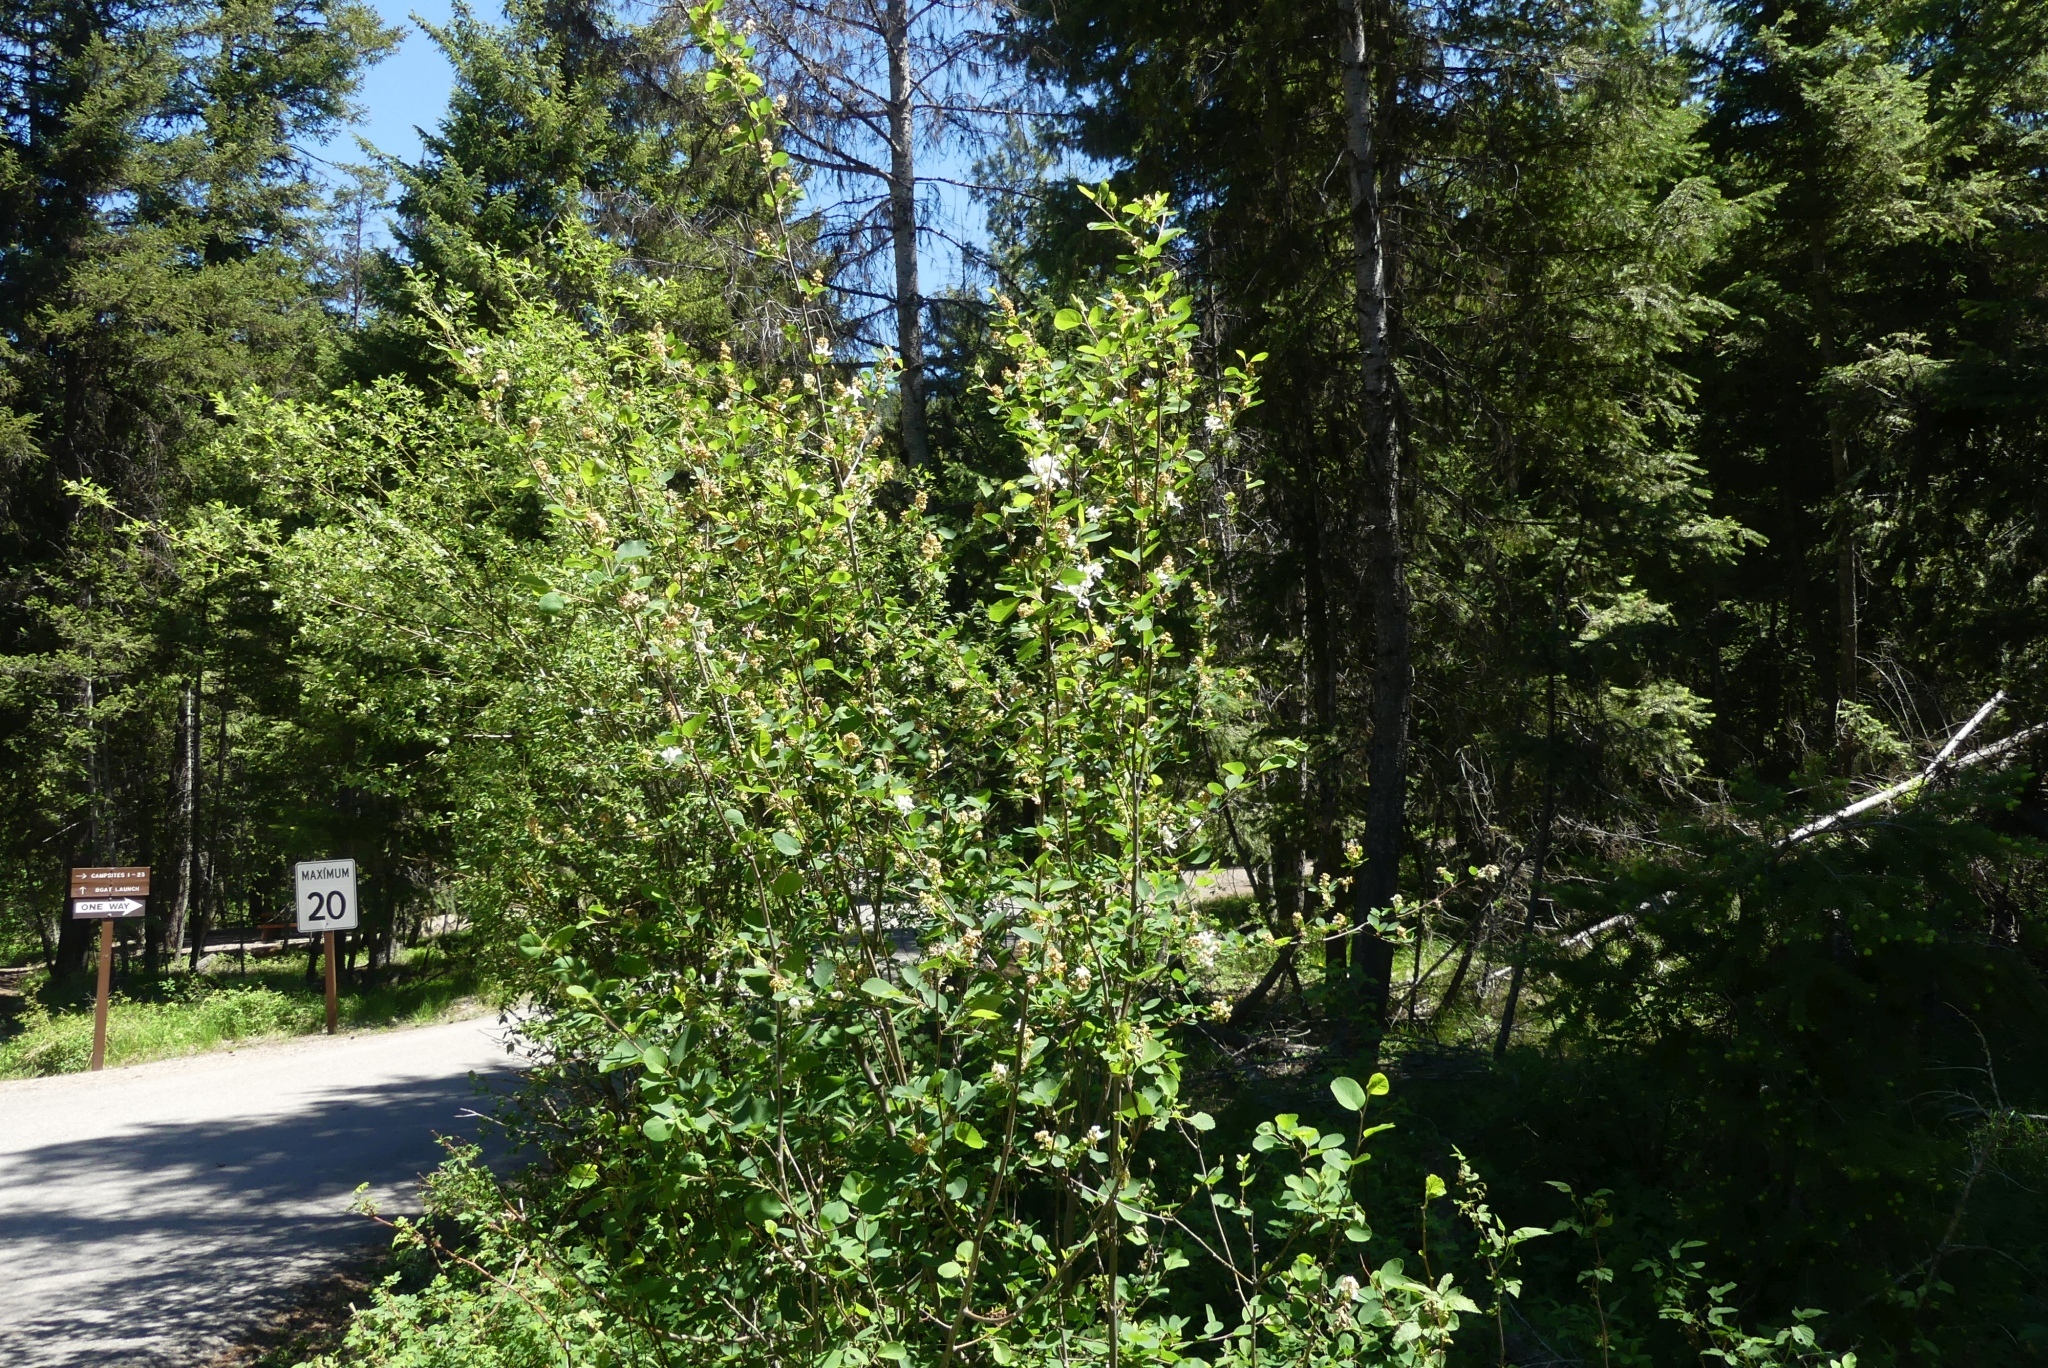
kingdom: Plantae
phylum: Tracheophyta
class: Magnoliopsida
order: Rosales
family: Rosaceae
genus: Amelanchier
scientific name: Amelanchier alnifolia
